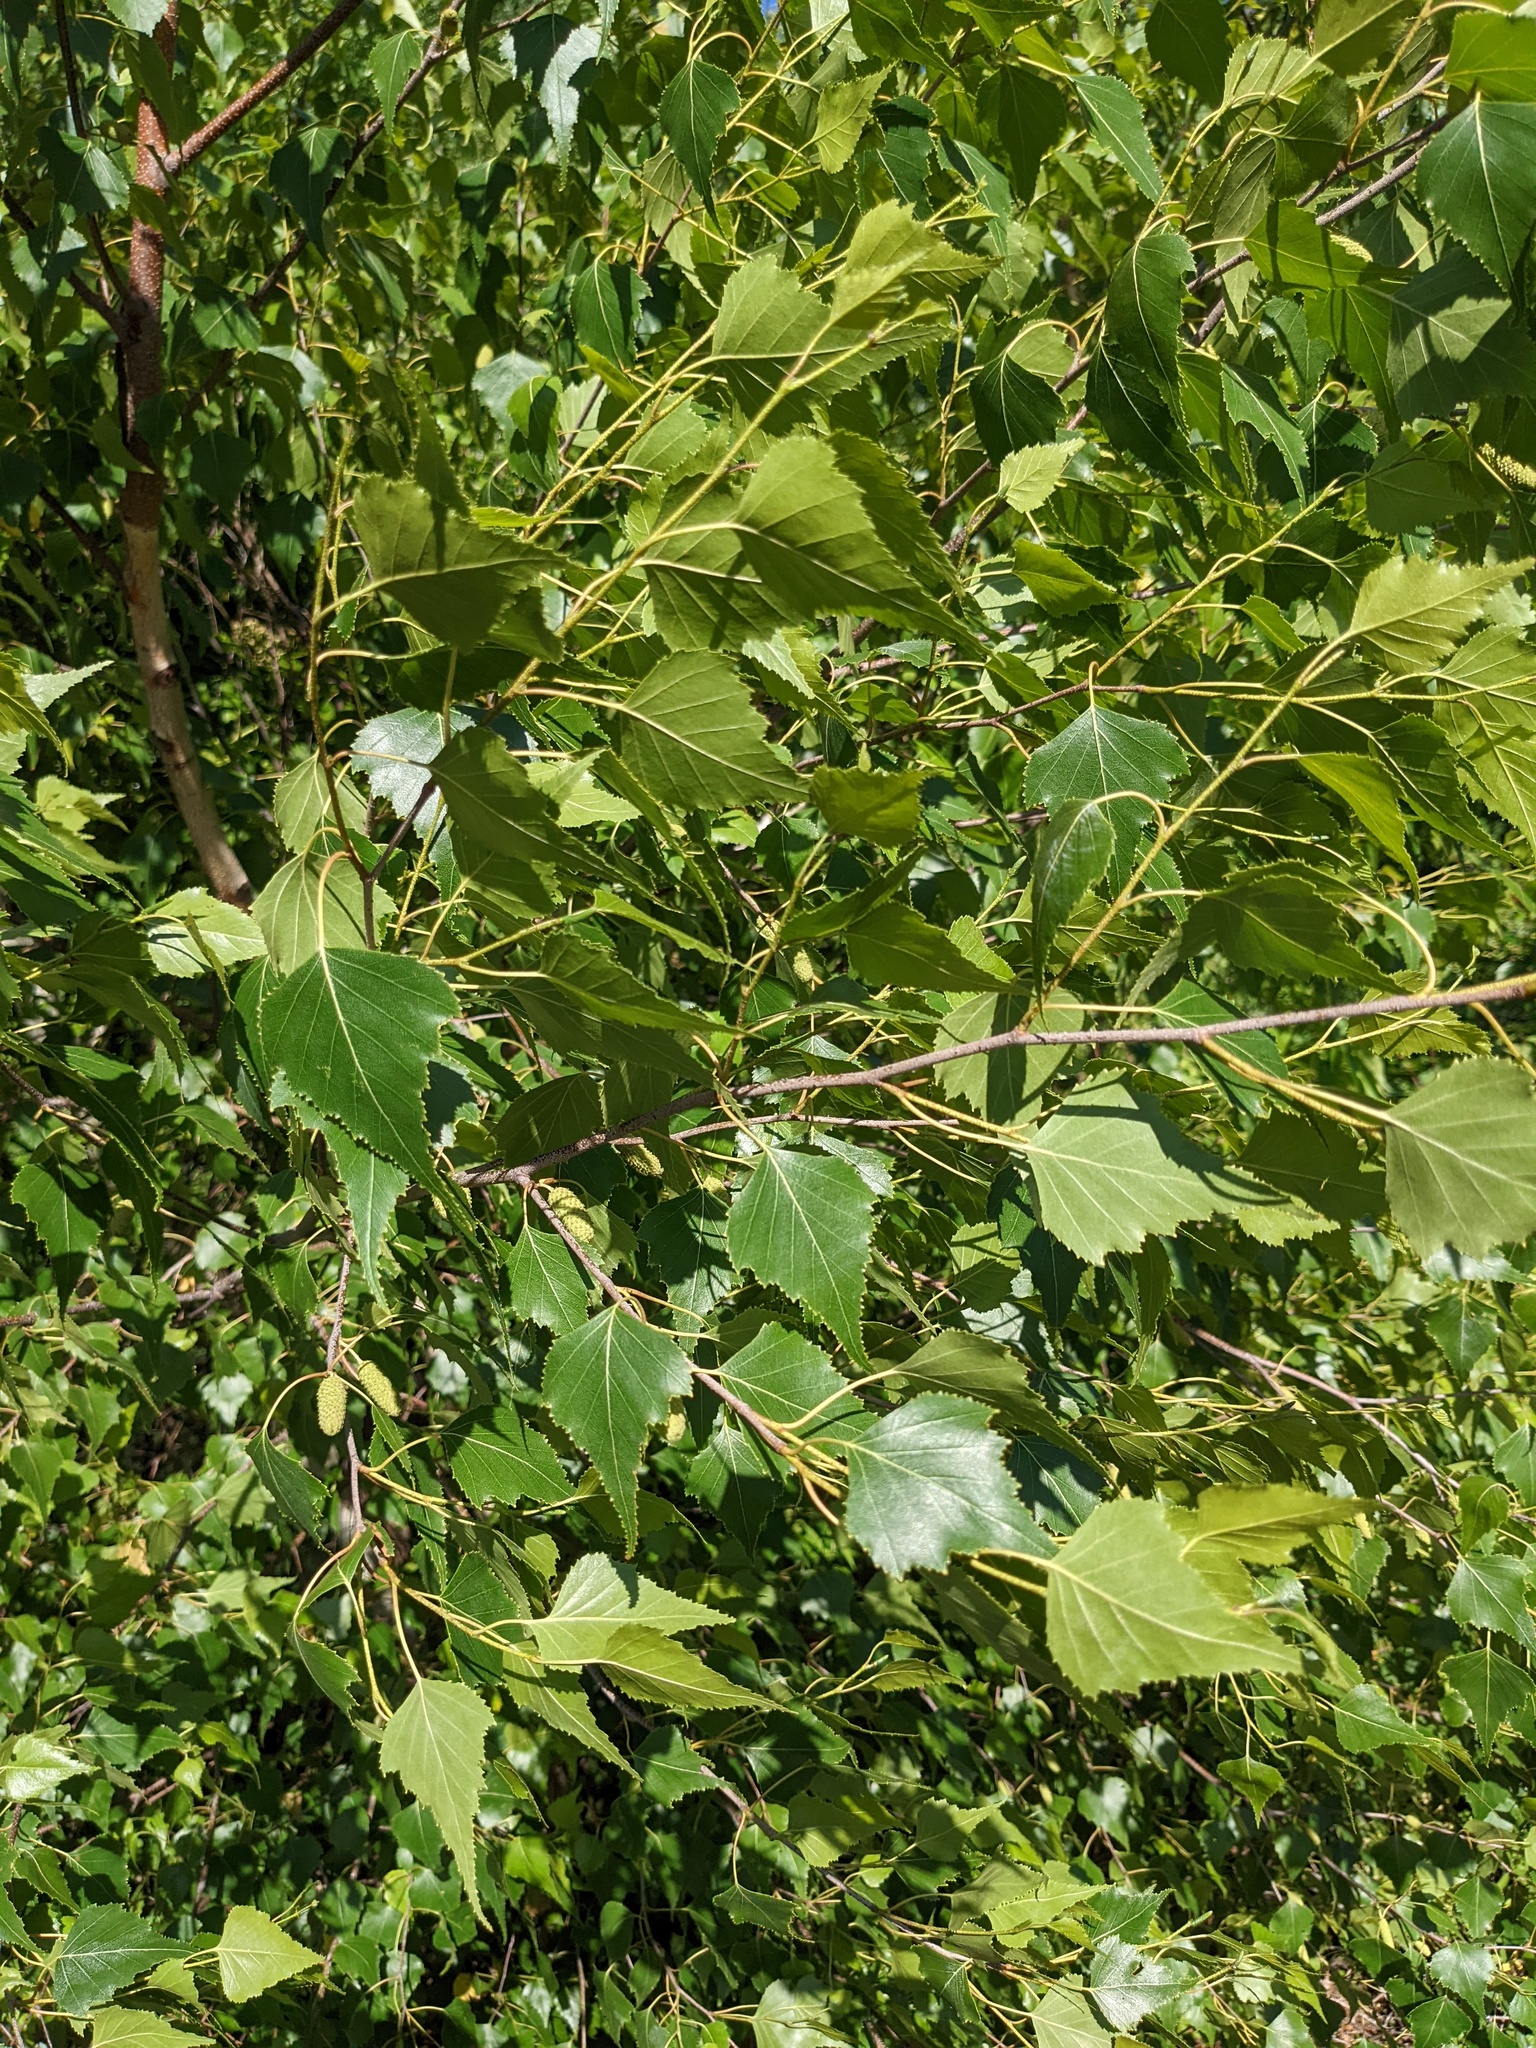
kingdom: Plantae
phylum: Tracheophyta
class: Magnoliopsida
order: Fagales
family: Betulaceae
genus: Betula
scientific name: Betula populifolia
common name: Fire birch
